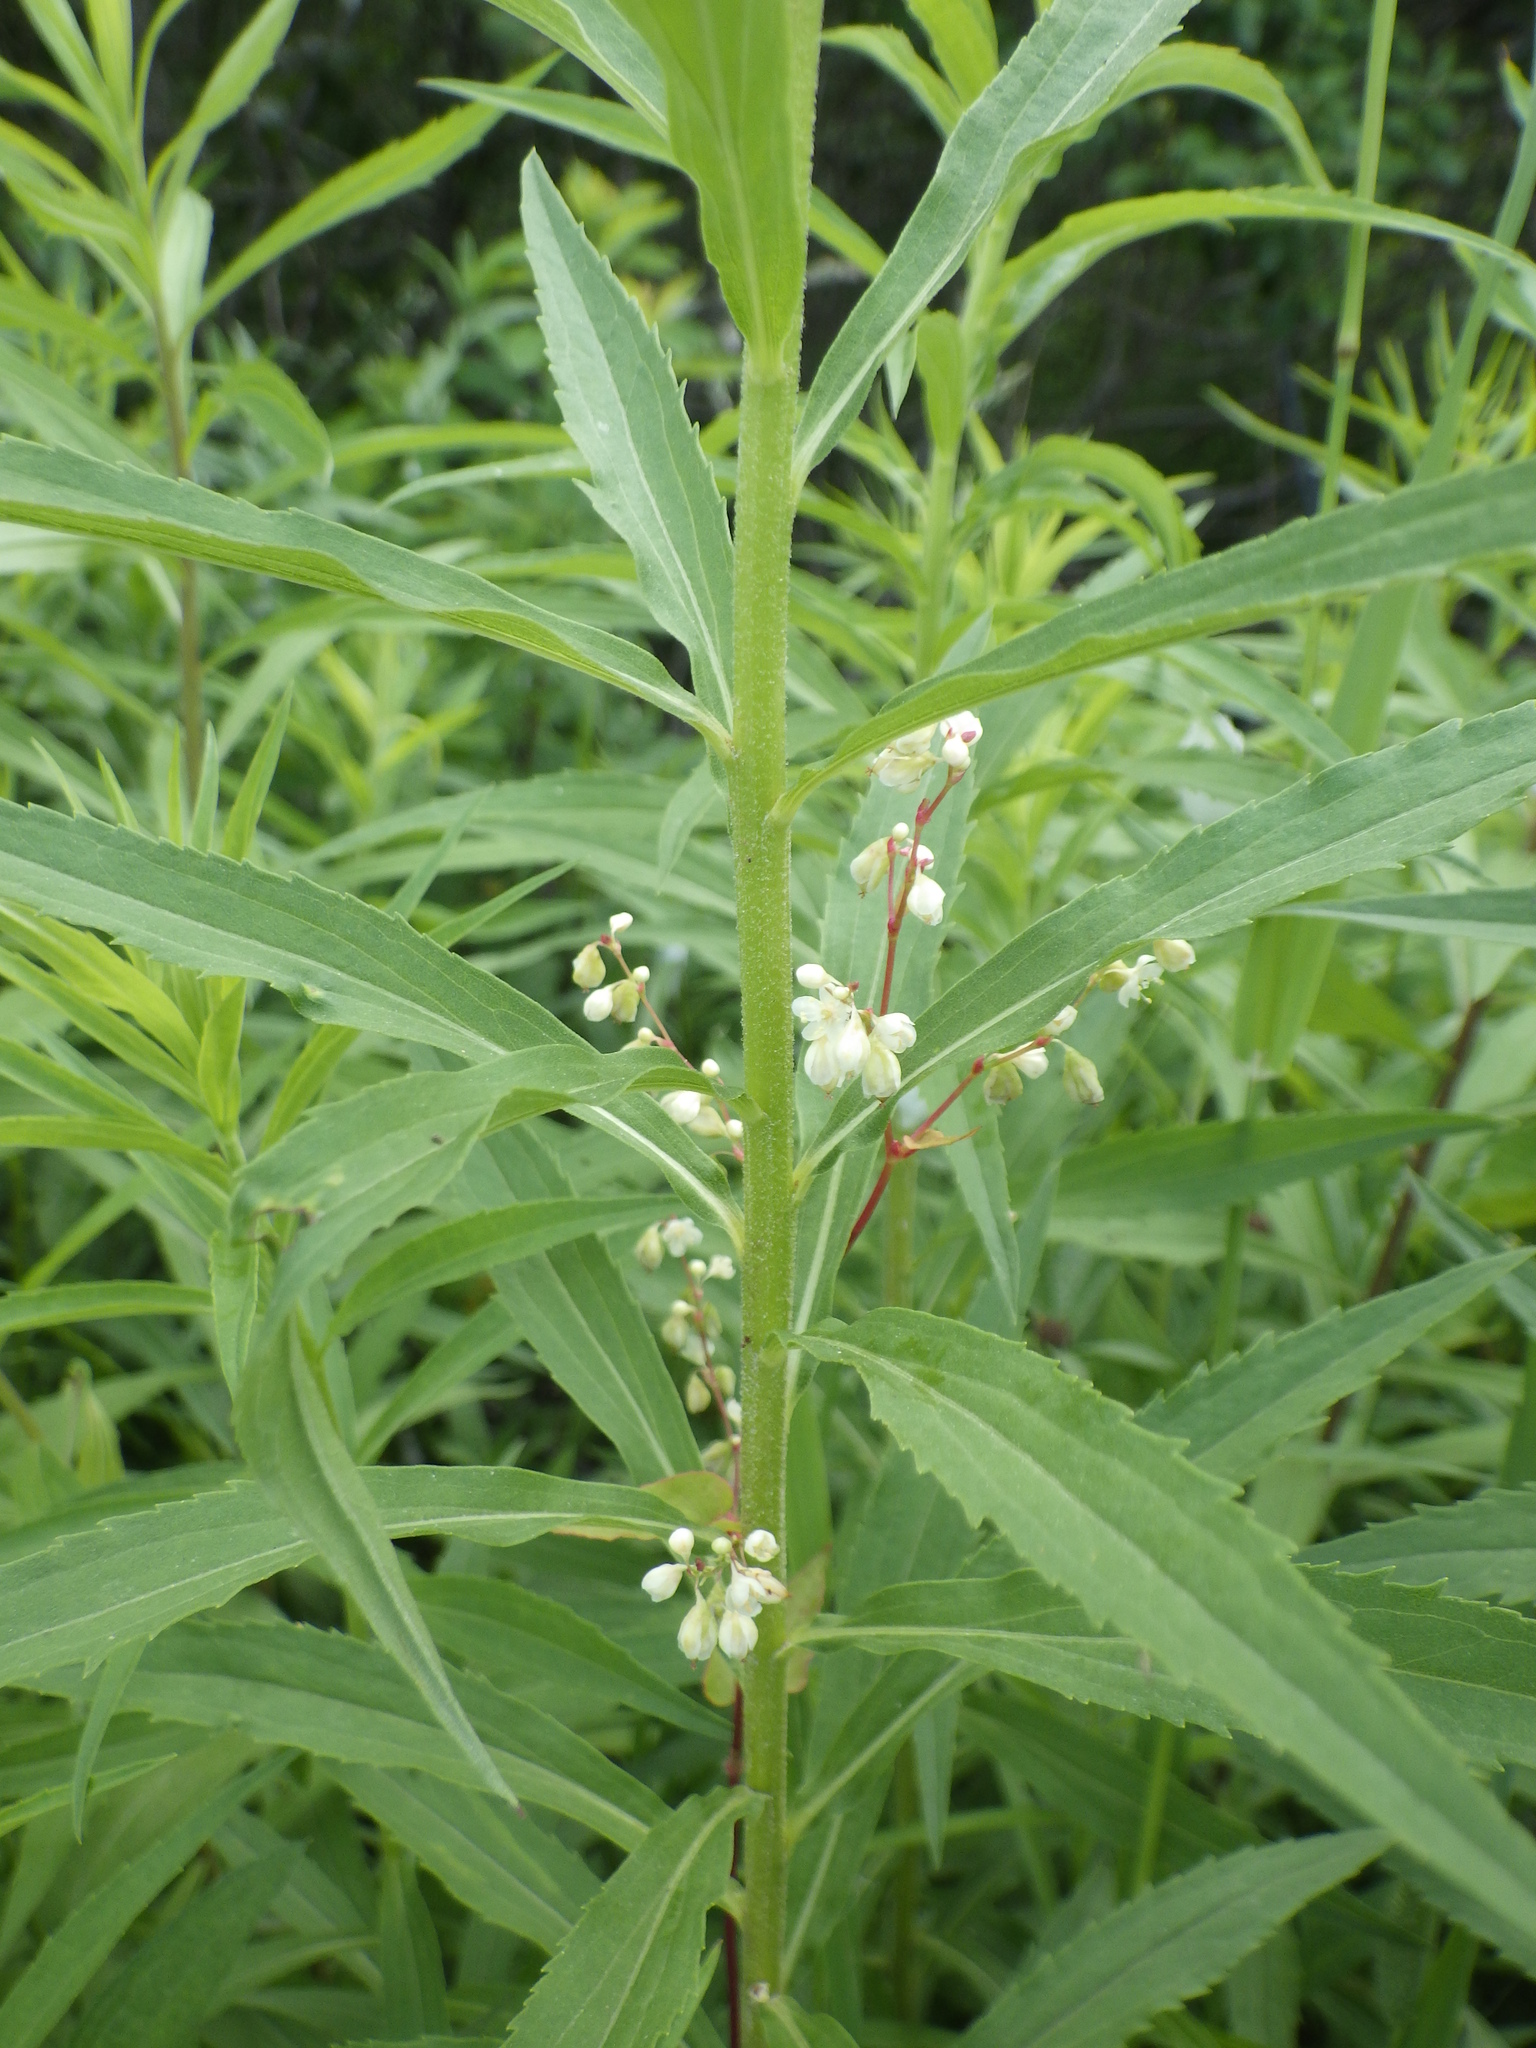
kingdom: Plantae
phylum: Tracheophyta
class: Magnoliopsida
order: Caryophyllales
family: Polygonaceae
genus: Fallopia
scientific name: Fallopia scandens
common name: Climbing false buckwheat
